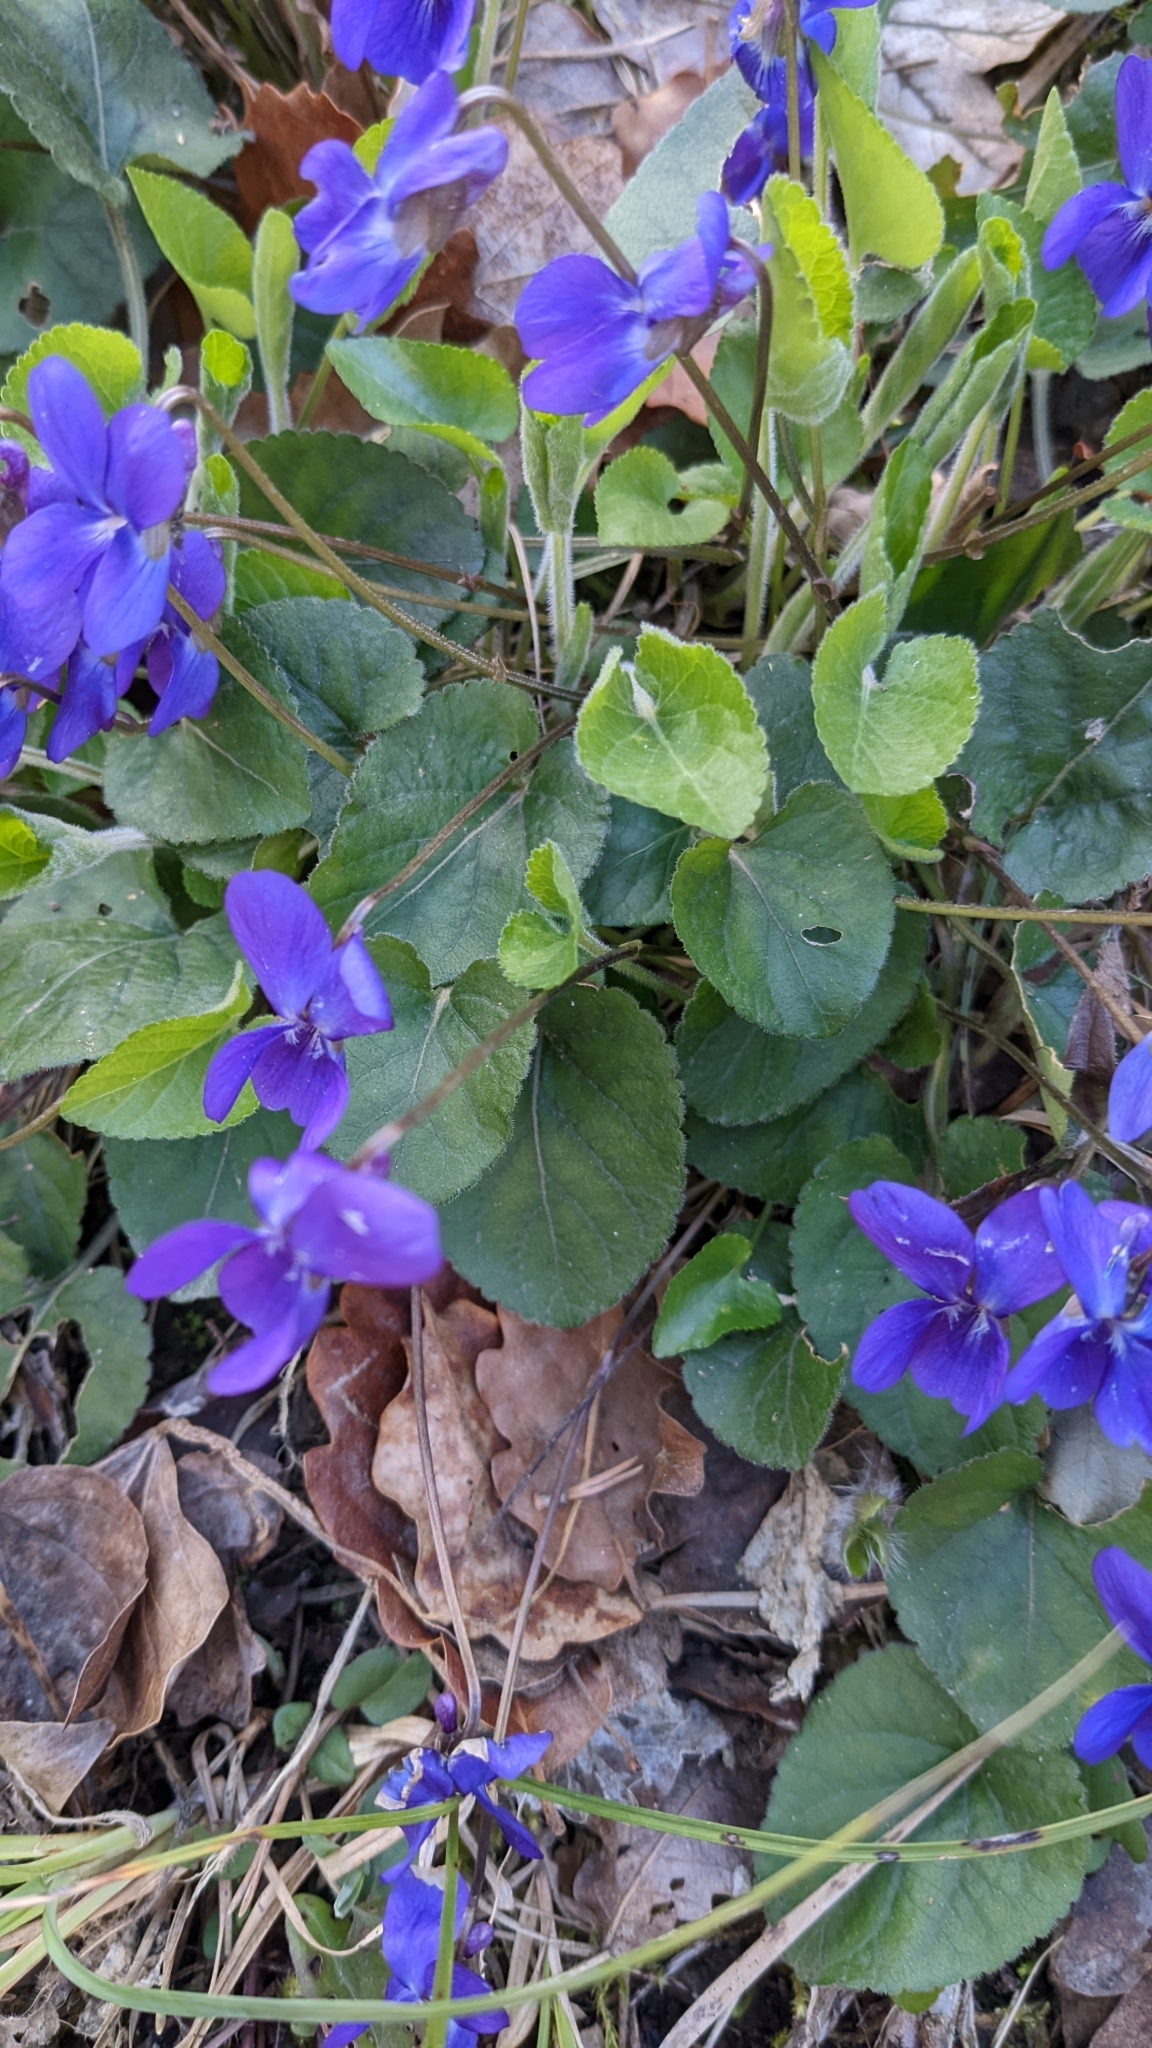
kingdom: Plantae
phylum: Tracheophyta
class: Magnoliopsida
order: Malpighiales
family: Violaceae
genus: Viola
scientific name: Viola odorata
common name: Sweet violet
